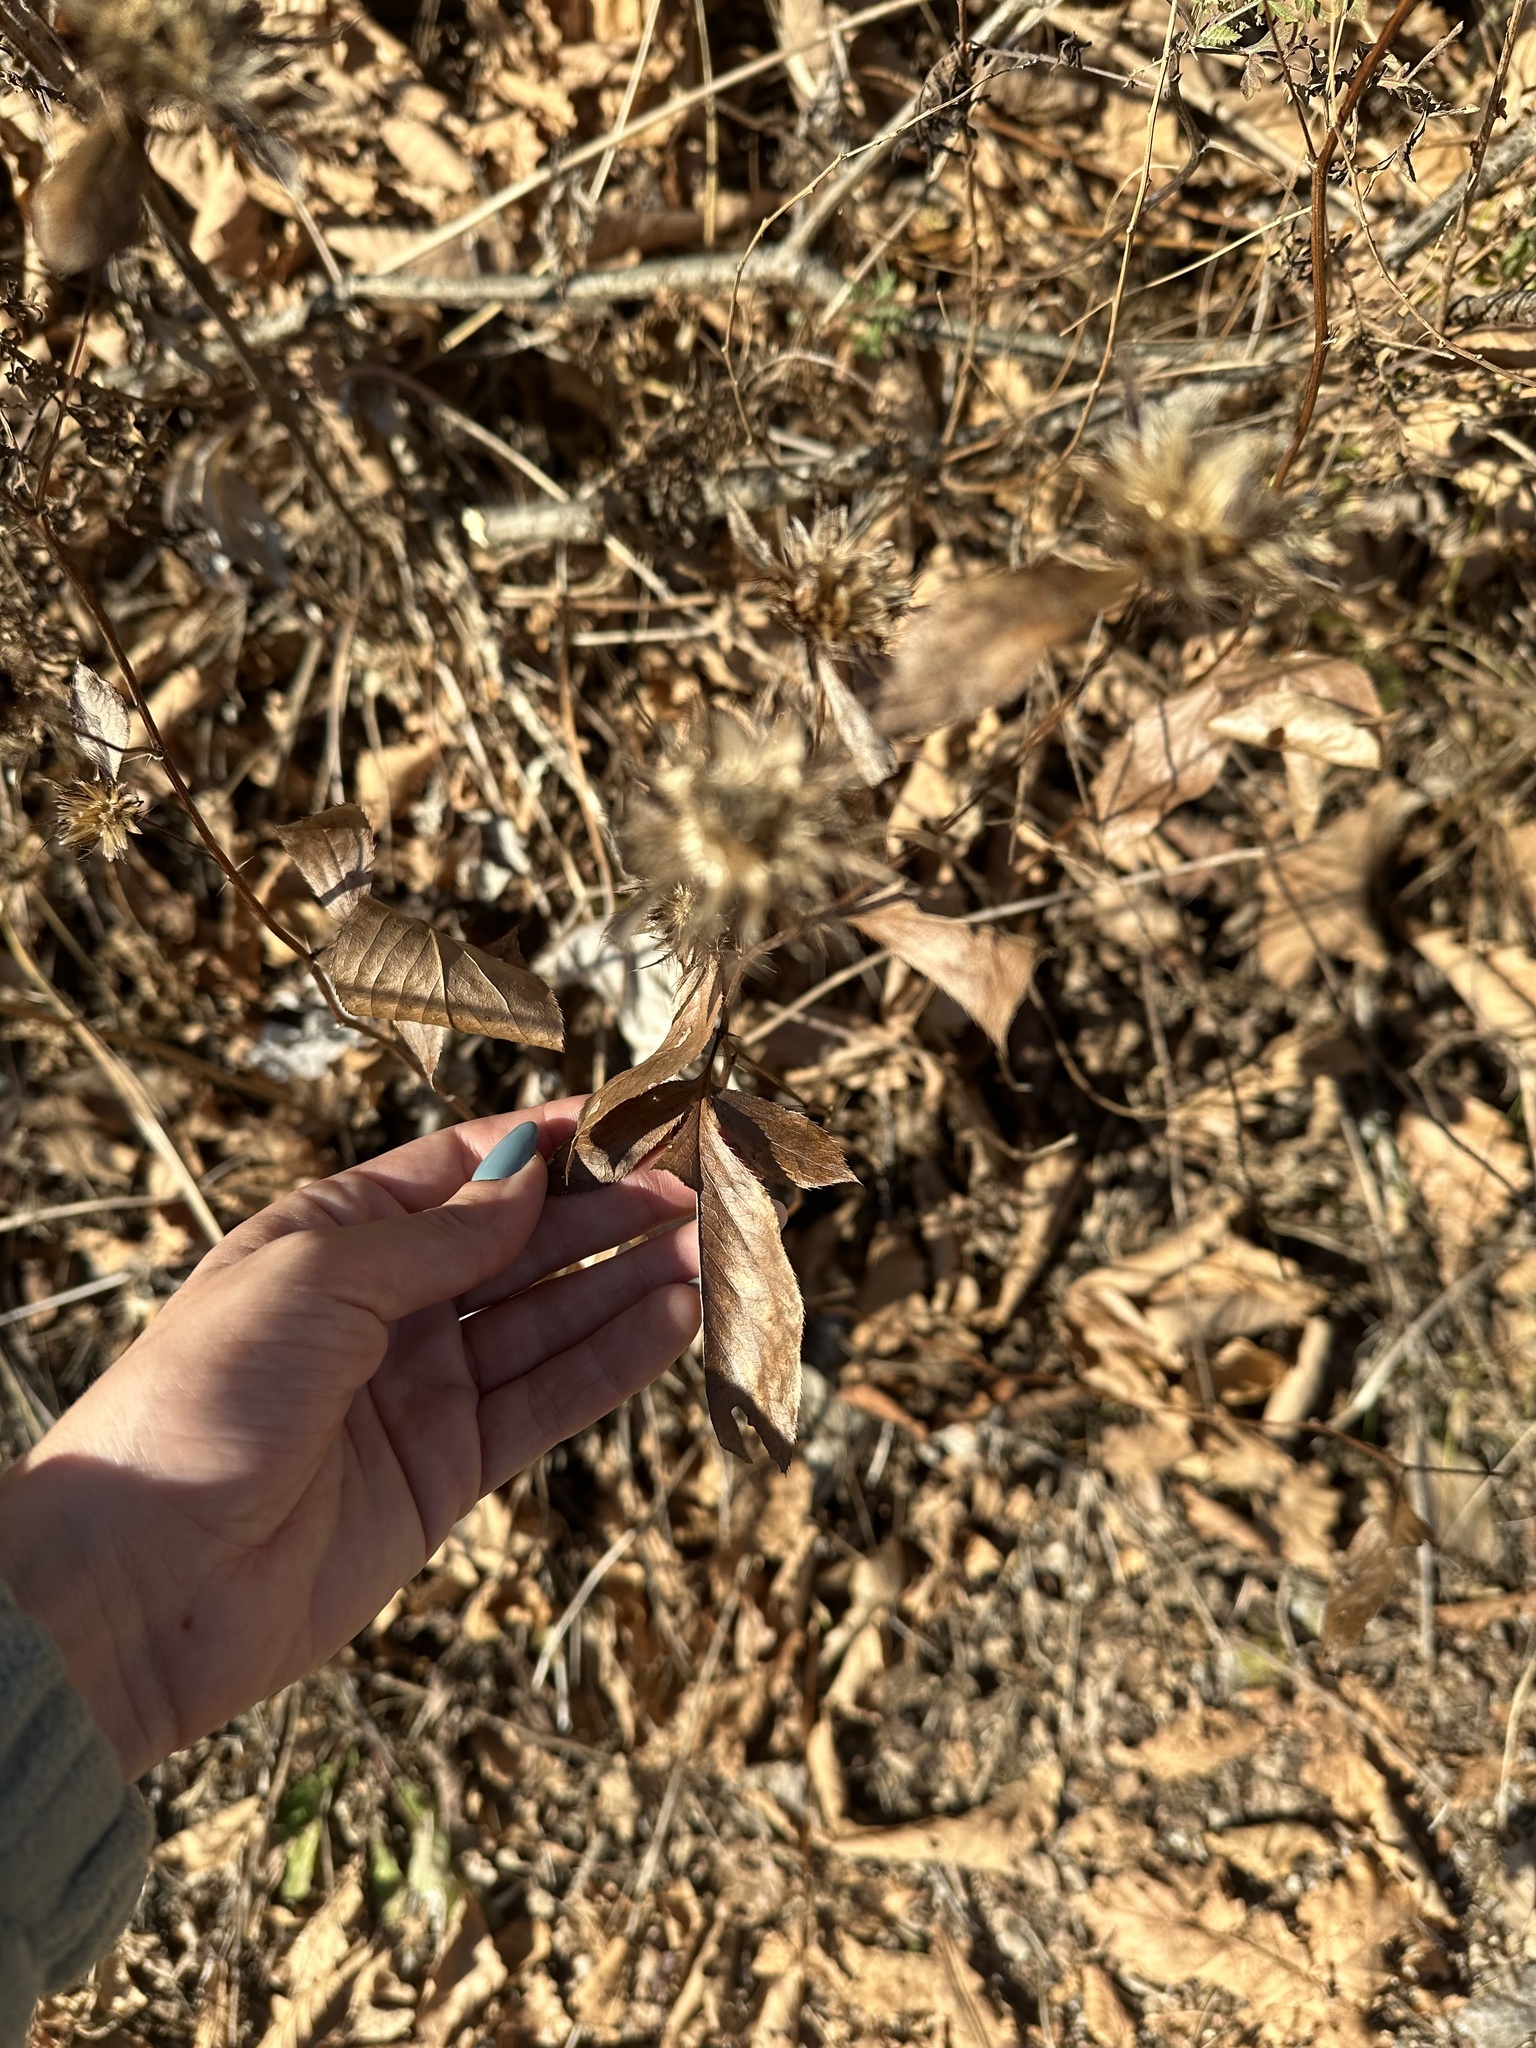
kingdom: Plantae
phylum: Tracheophyta
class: Magnoliopsida
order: Asterales
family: Asteraceae
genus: Atractylodes
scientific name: Atractylodes lancea
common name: Southern tsangshu
